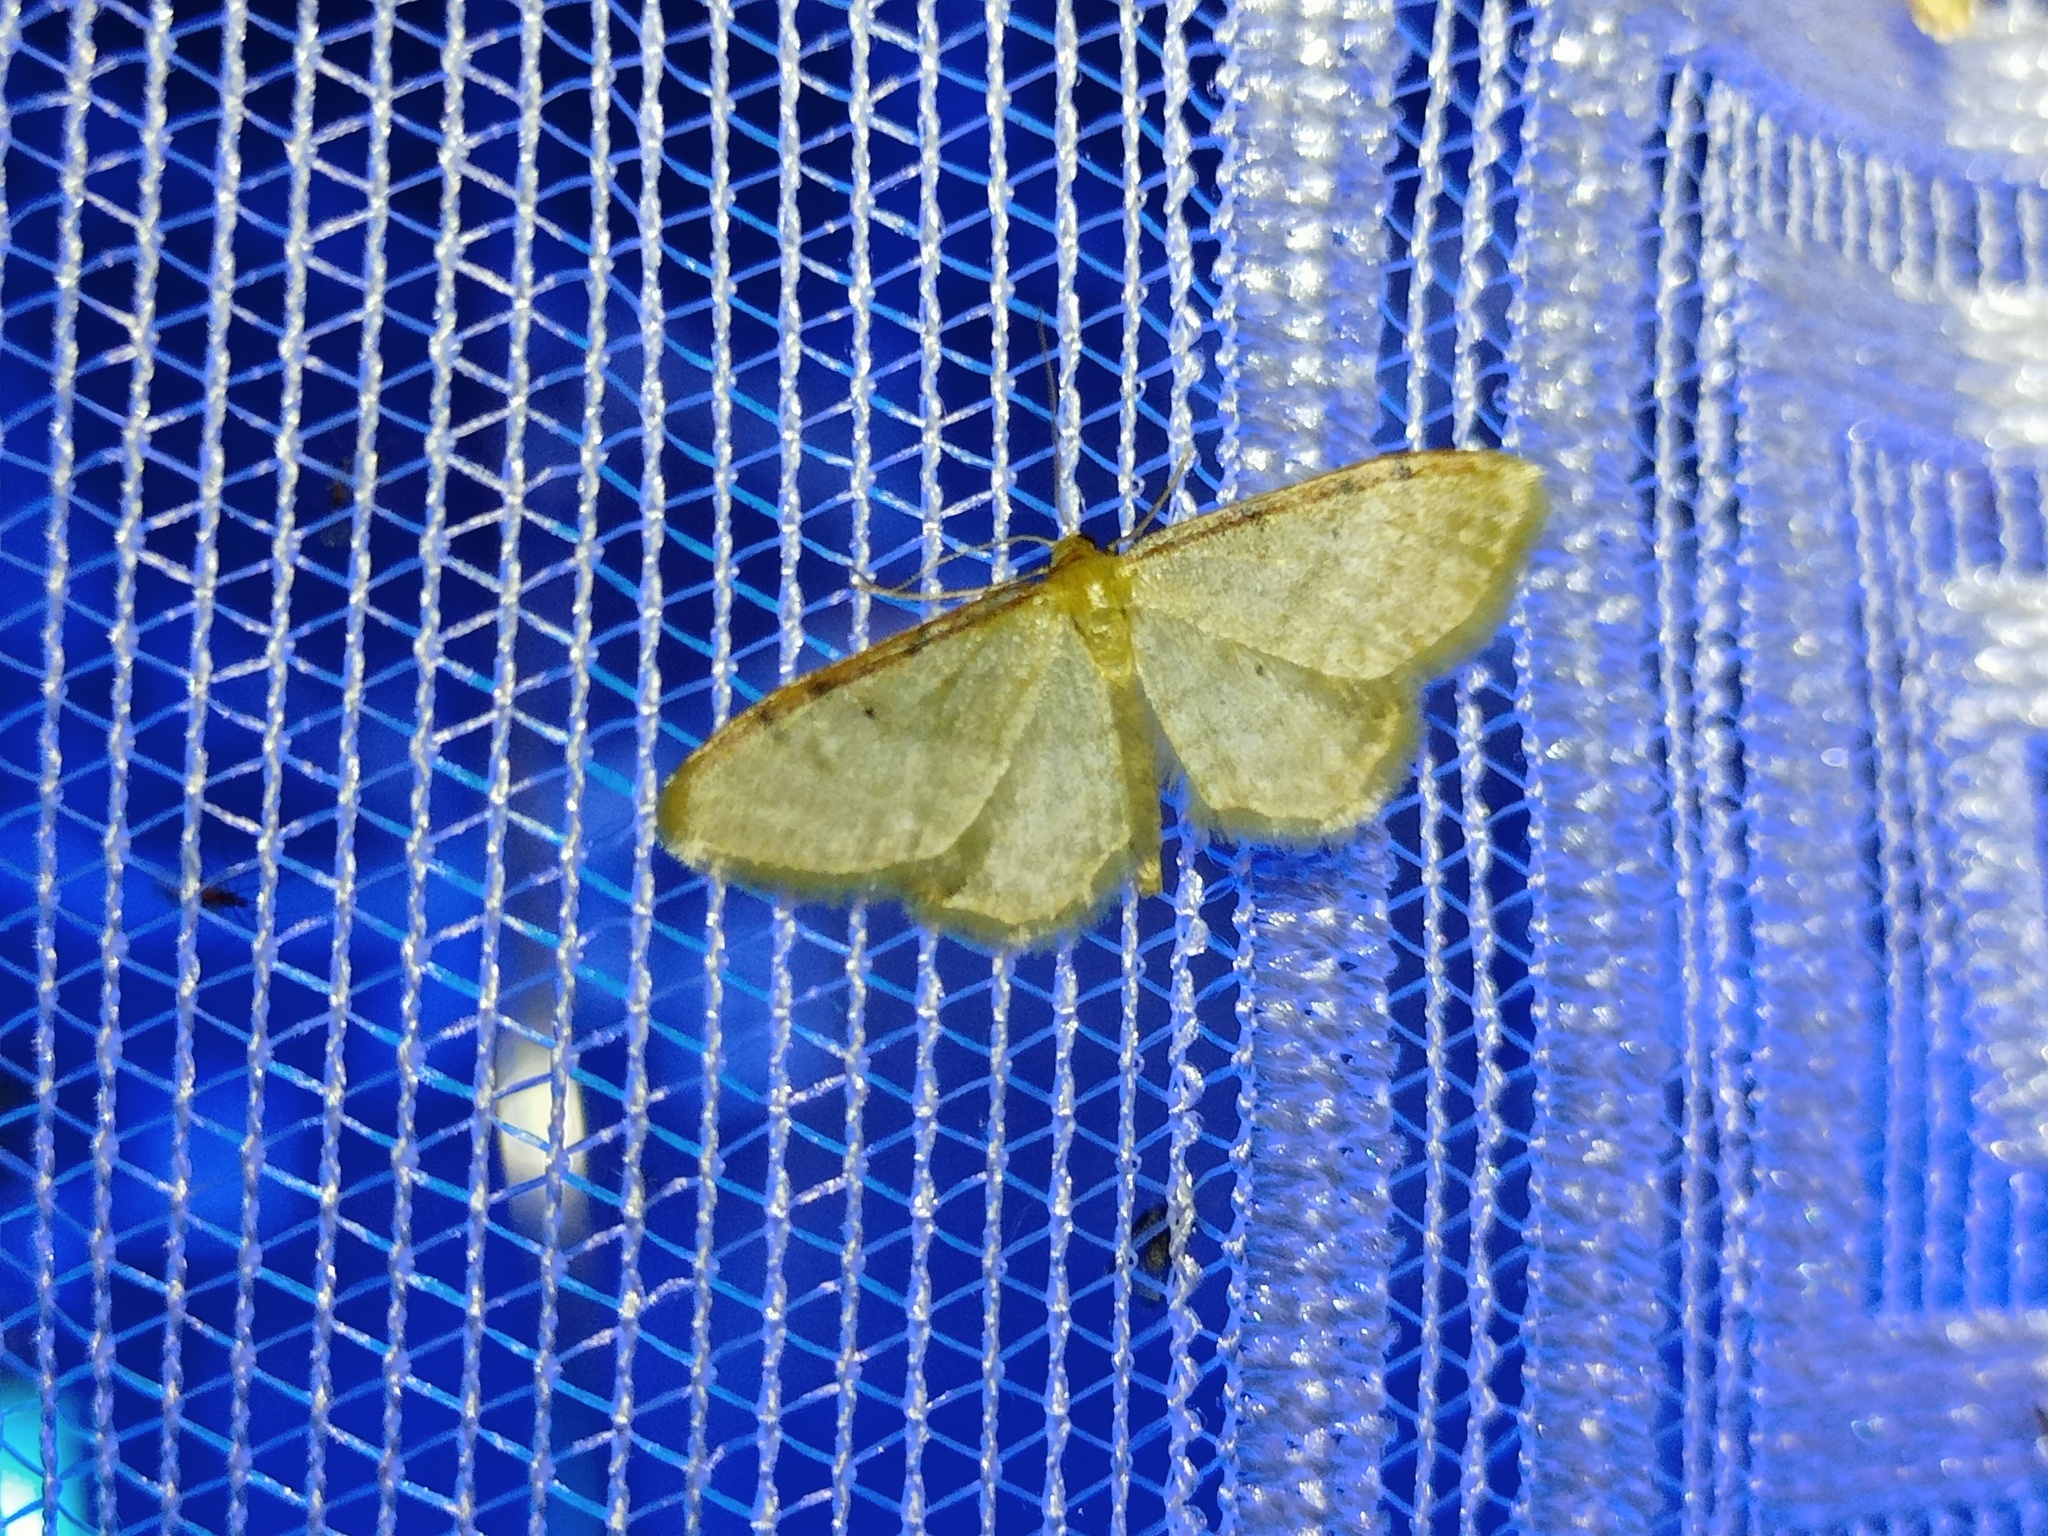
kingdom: Animalia
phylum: Arthropoda
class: Insecta
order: Lepidoptera
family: Geometridae
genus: Idaea
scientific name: Idaea humiliata
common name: Isle of wight wave
